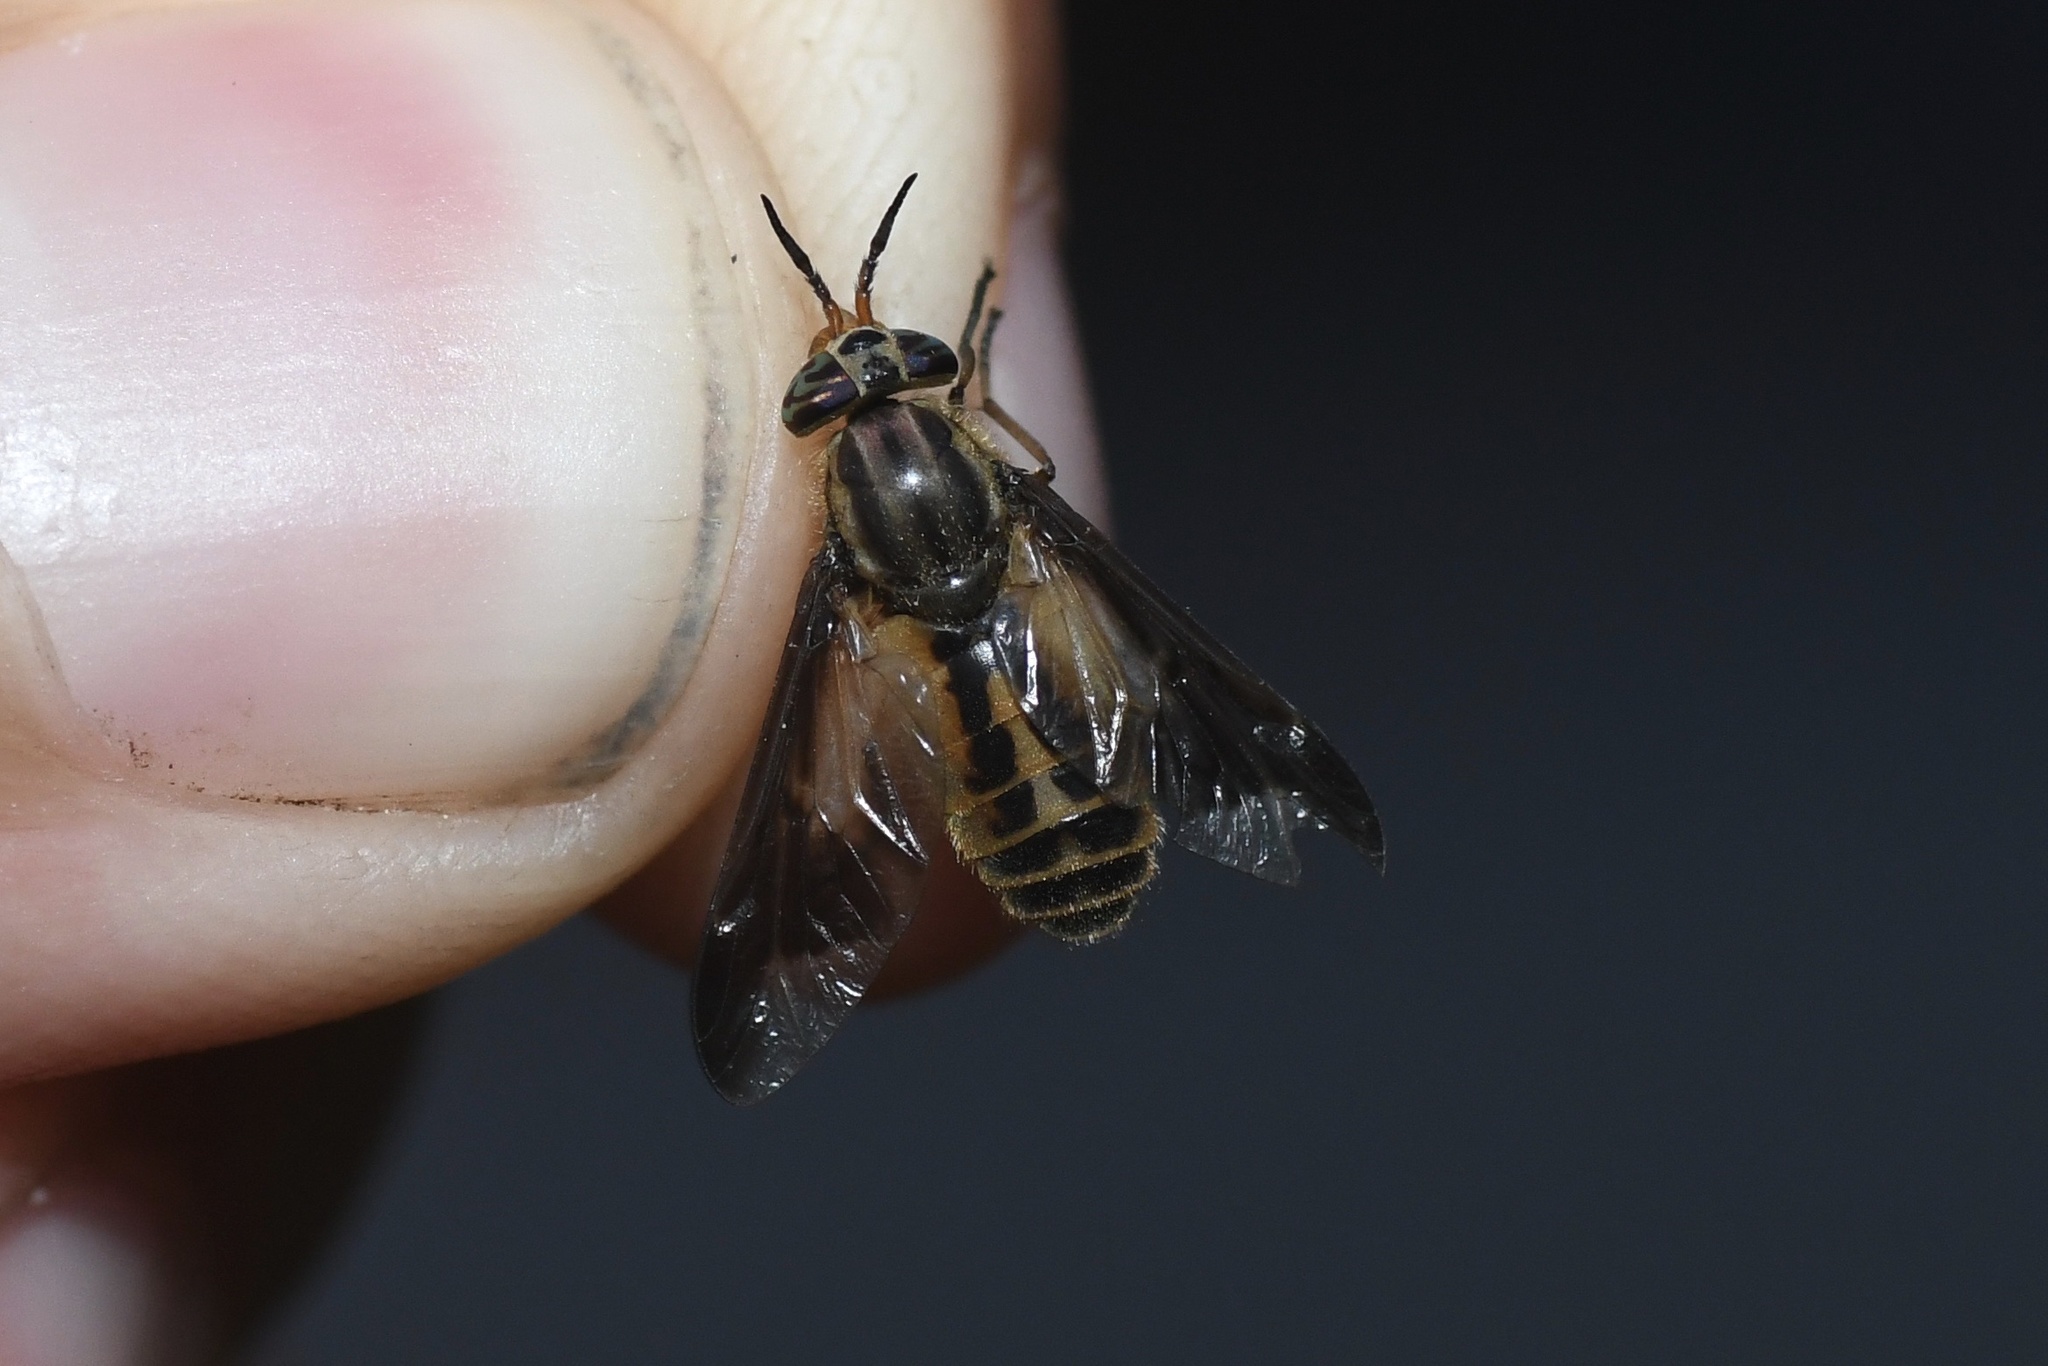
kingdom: Animalia
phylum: Arthropoda
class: Insecta
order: Diptera
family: Tabanidae
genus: Chrysops
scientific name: Chrysops indus
